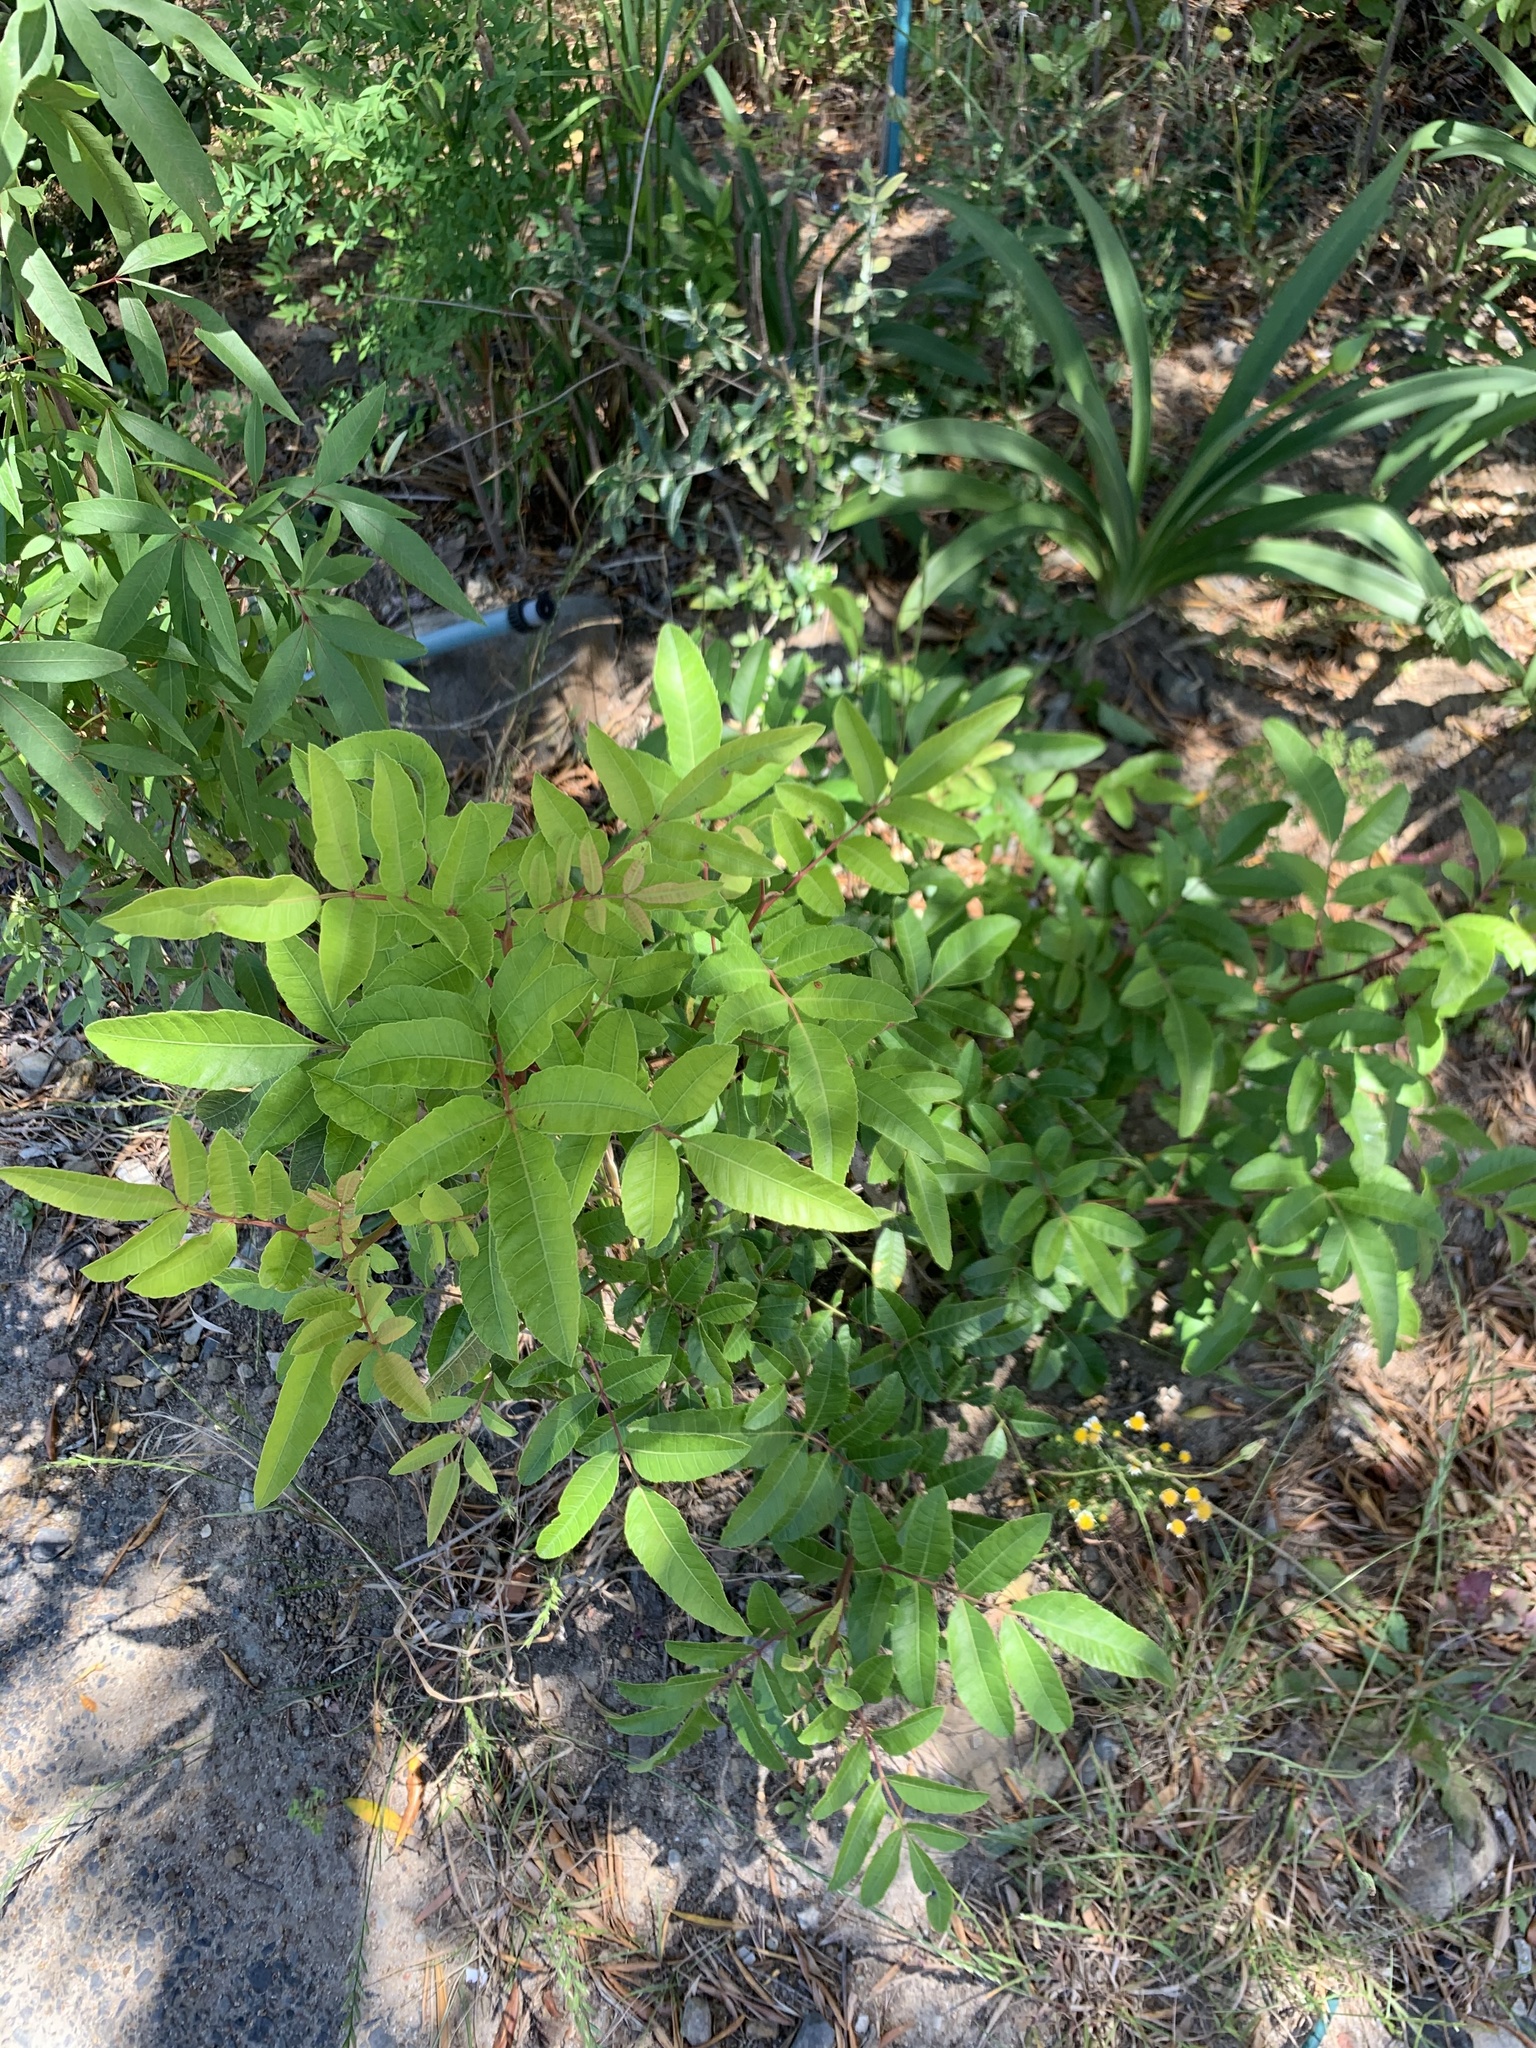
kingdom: Plantae
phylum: Tracheophyta
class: Magnoliopsida
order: Sapindales
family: Anacardiaceae
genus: Schinus
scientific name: Schinus terebinthifolia
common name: Brazilian peppertree
